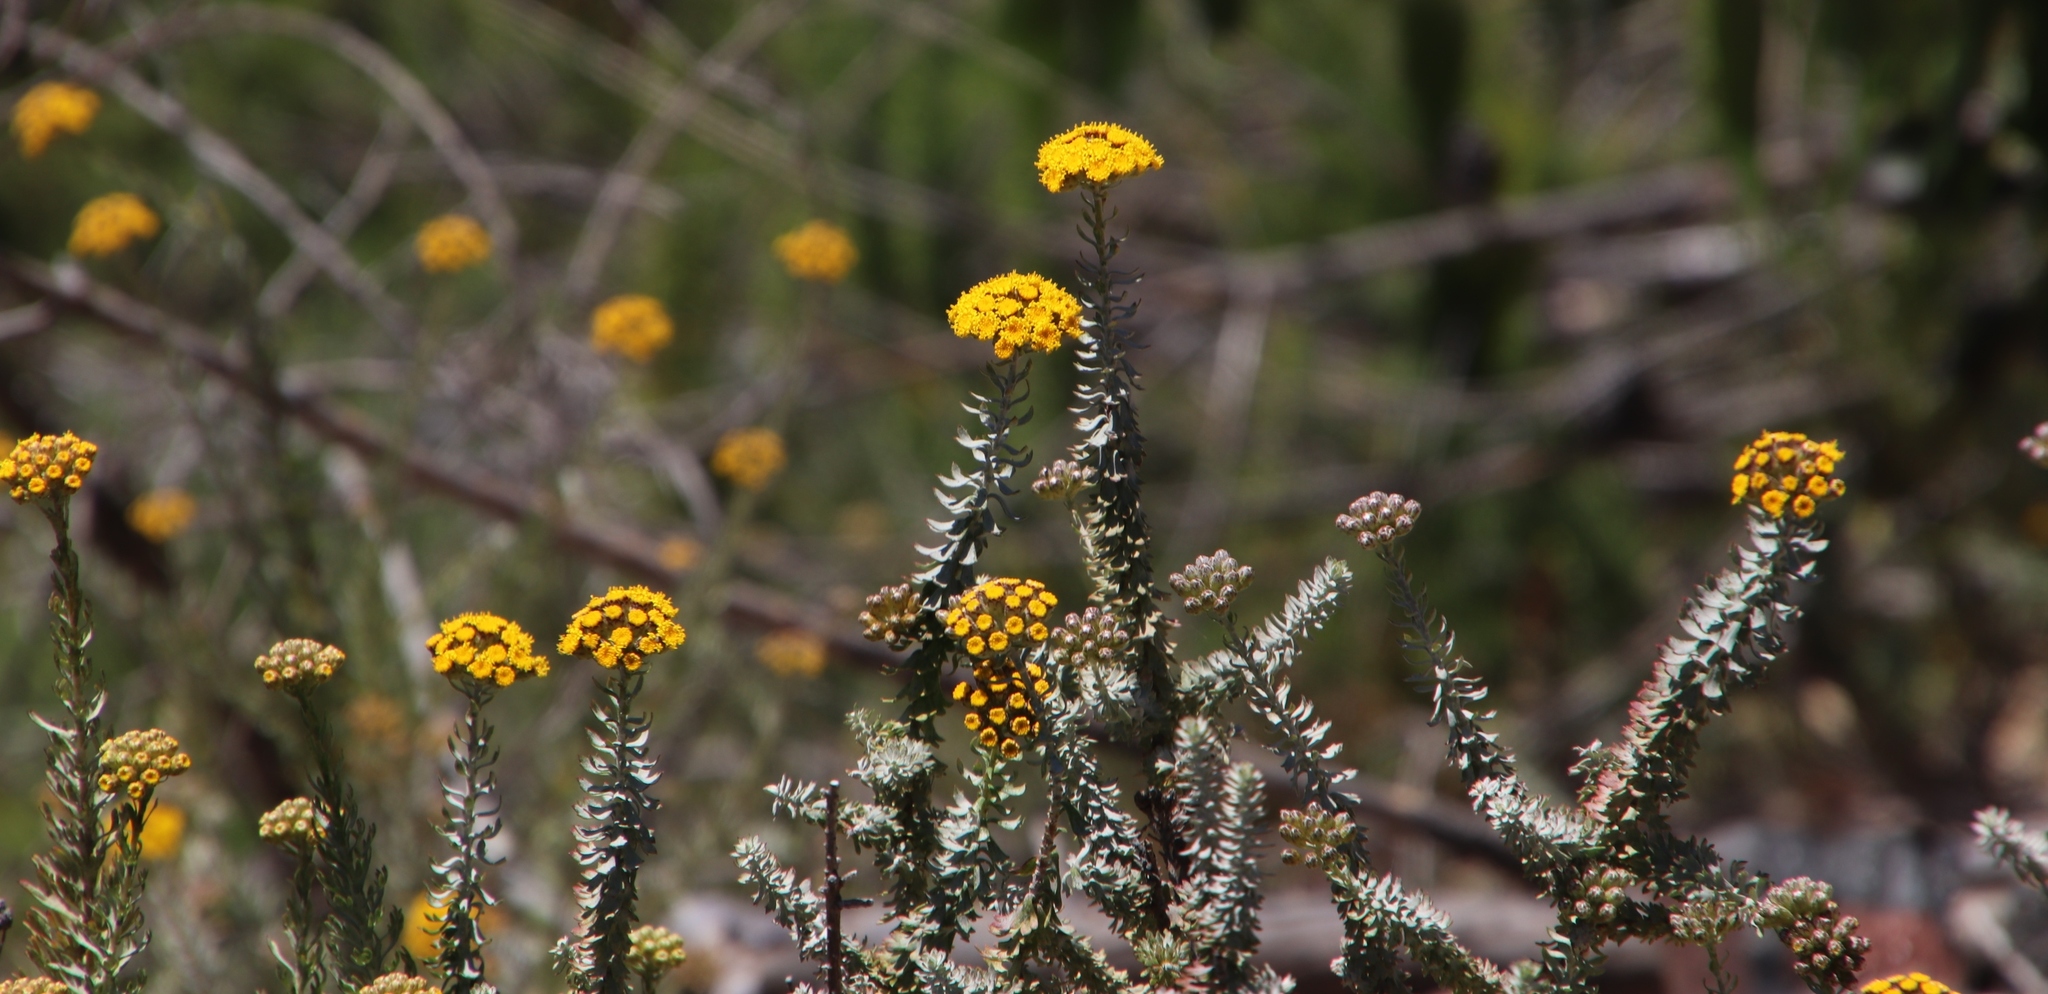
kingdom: Plantae
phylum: Tracheophyta
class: Magnoliopsida
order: Asterales
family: Asteraceae
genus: Athanasia
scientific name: Athanasia trifurcata
